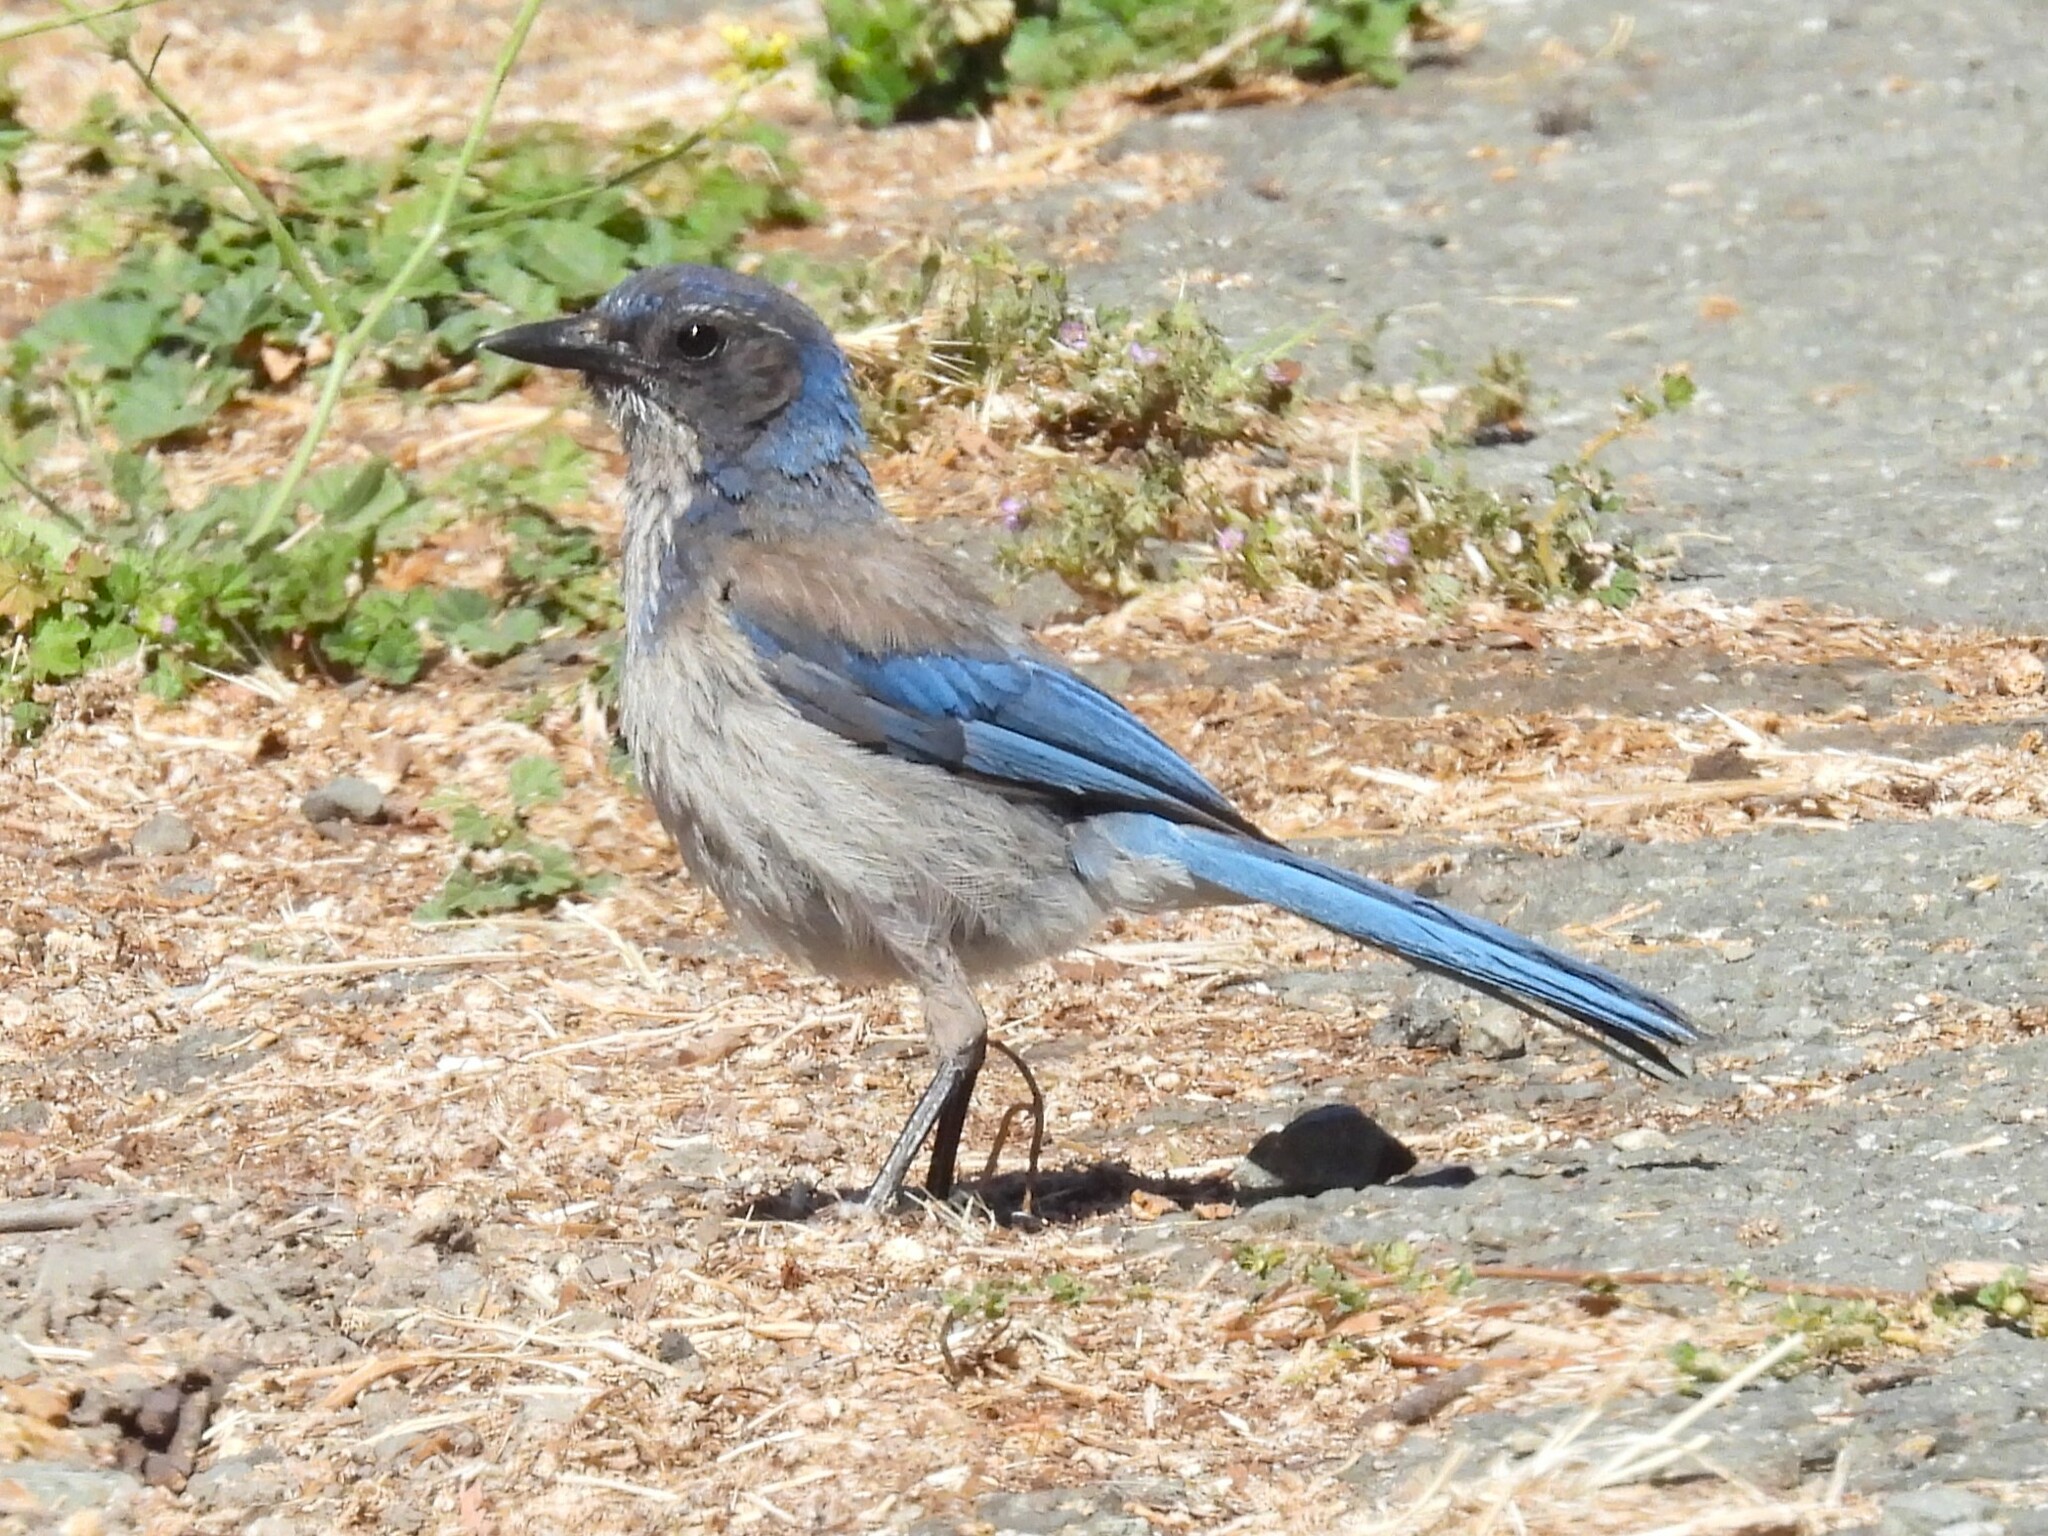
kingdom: Animalia
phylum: Chordata
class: Aves
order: Passeriformes
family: Corvidae
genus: Aphelocoma
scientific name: Aphelocoma californica
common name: California scrub-jay
